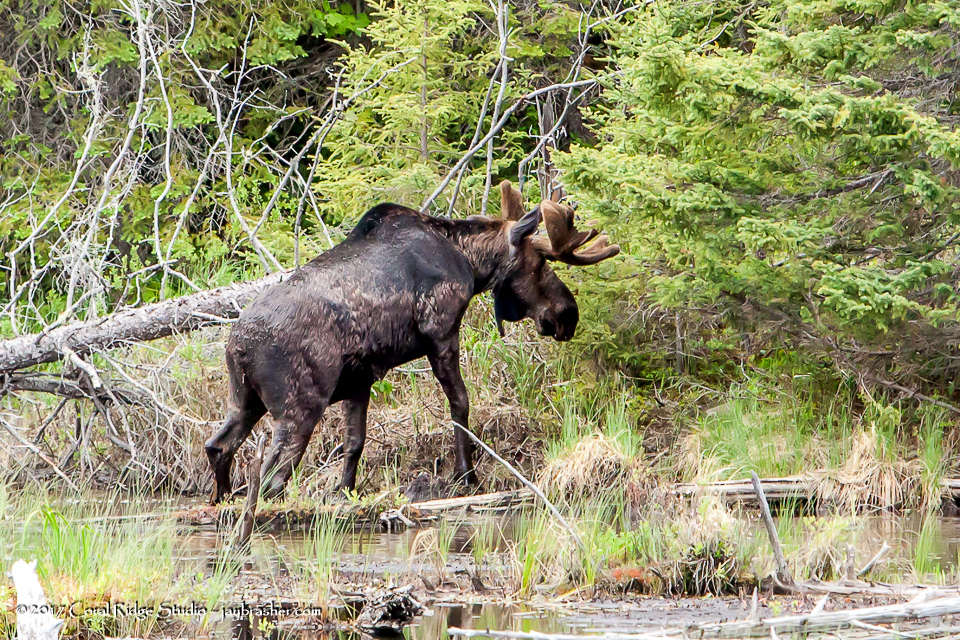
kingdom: Animalia
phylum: Chordata
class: Mammalia
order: Artiodactyla
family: Cervidae
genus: Alces
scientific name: Alces americanus
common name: Moose
